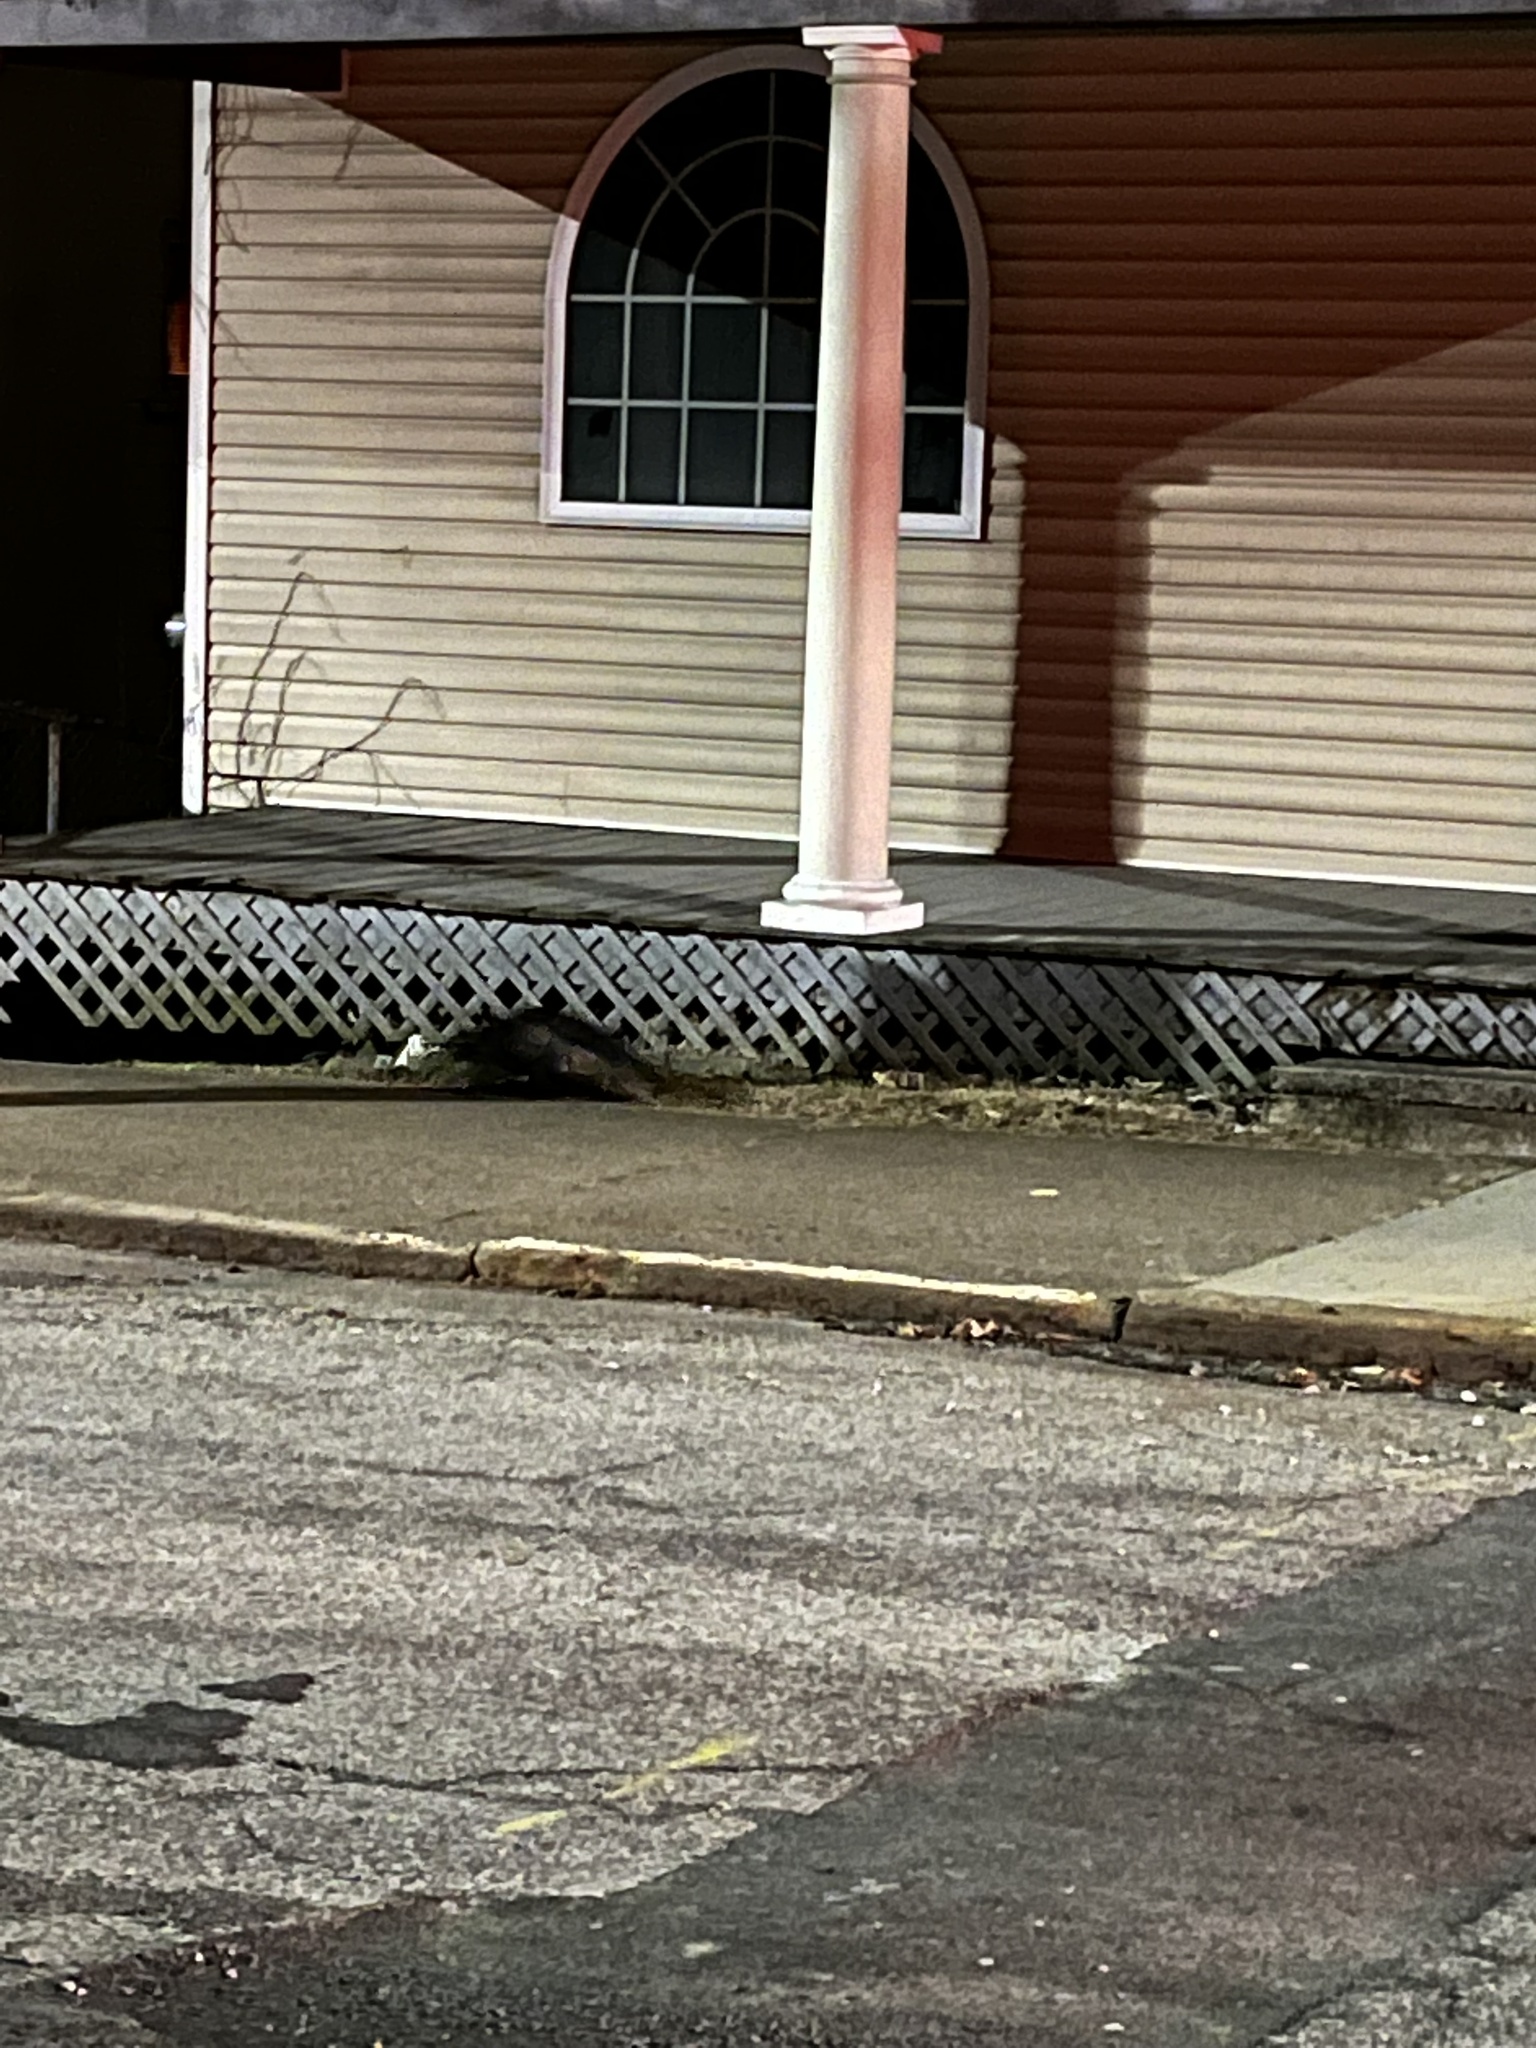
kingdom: Animalia
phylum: Chordata
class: Mammalia
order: Carnivora
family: Mephitidae
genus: Mephitis
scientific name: Mephitis mephitis
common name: Striped skunk
